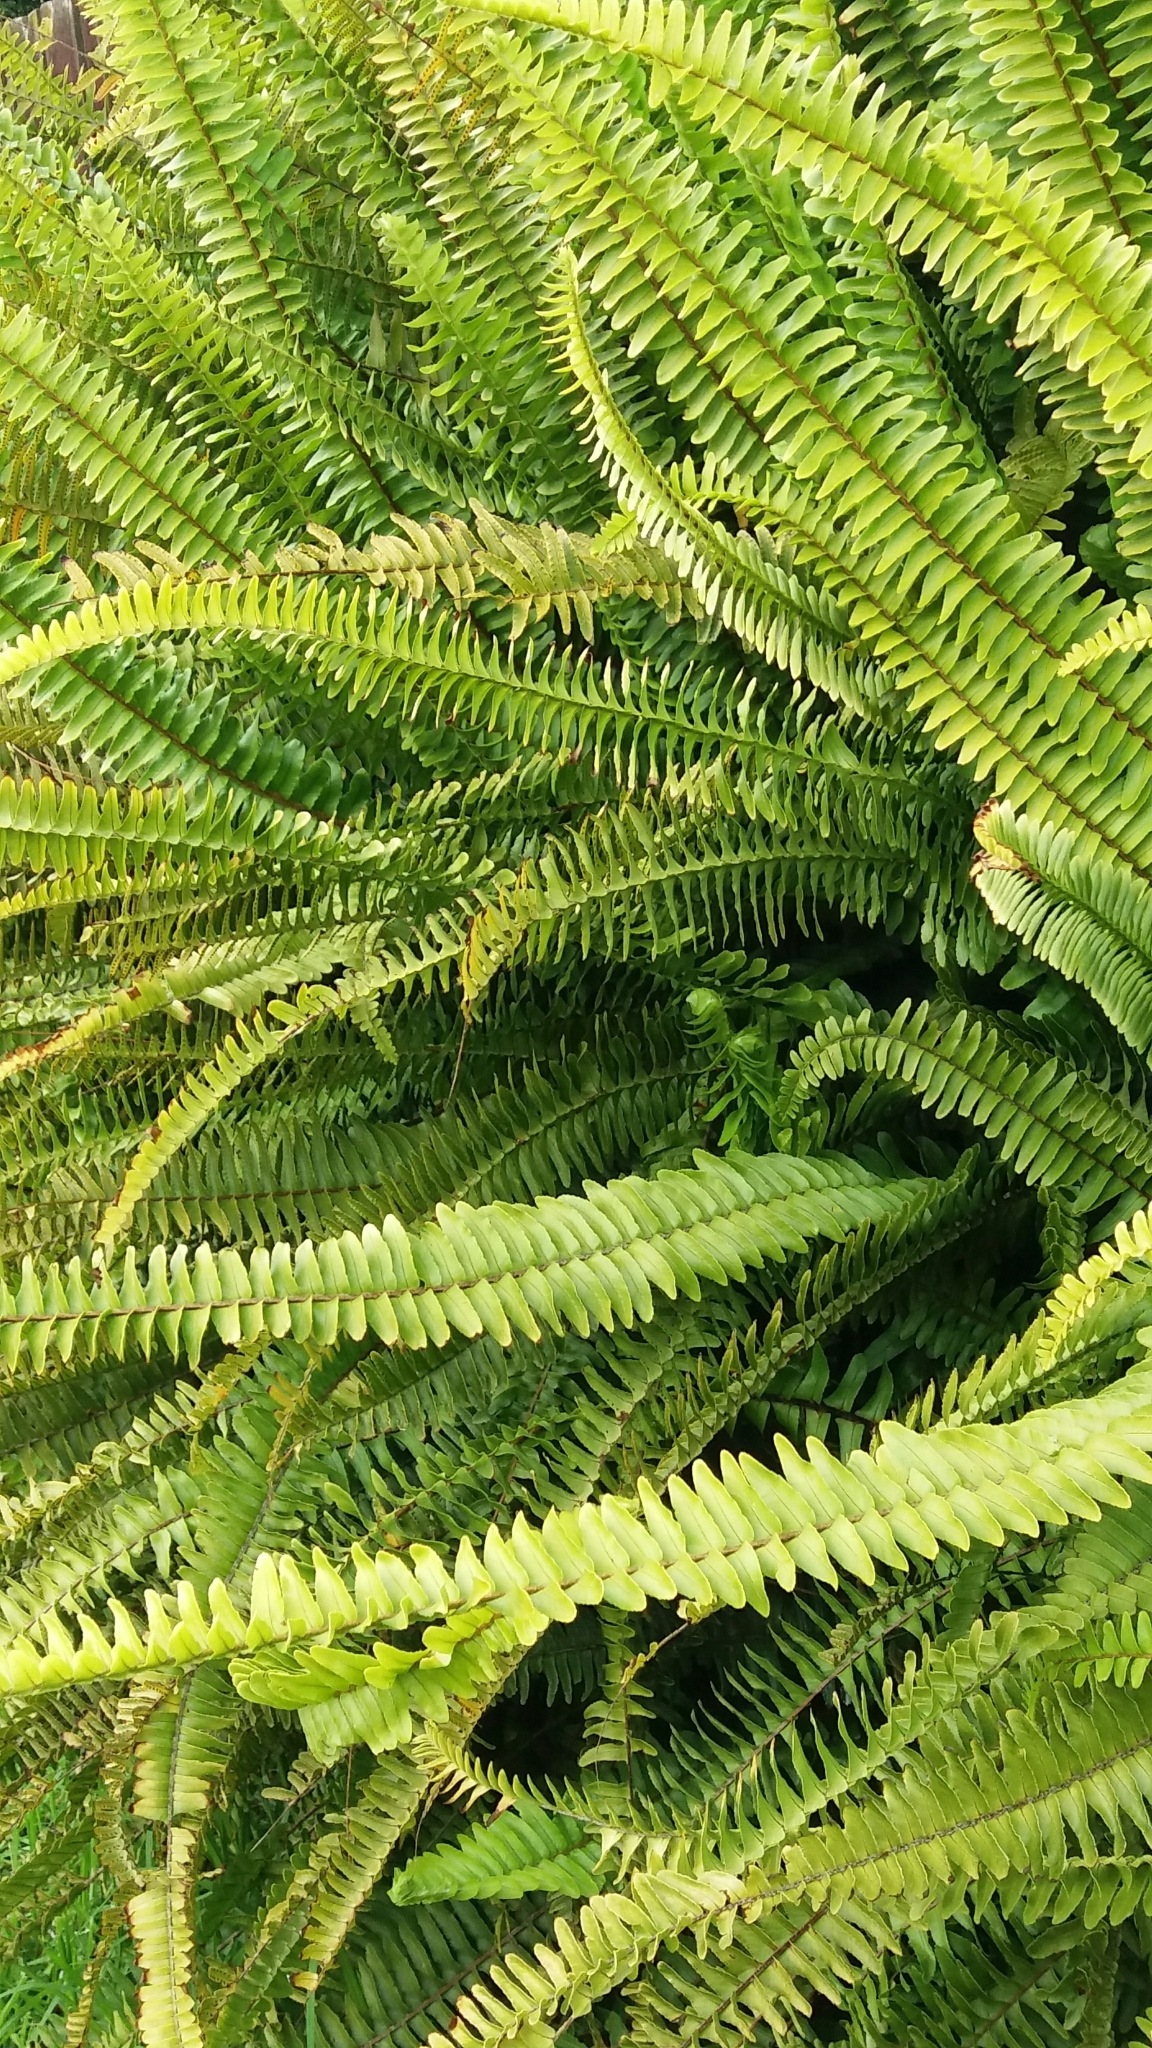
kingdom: Plantae
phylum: Tracheophyta
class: Polypodiopsida
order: Polypodiales
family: Nephrolepidaceae
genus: Nephrolepis
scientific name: Nephrolepis cordifolia
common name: Narrow swordfern
